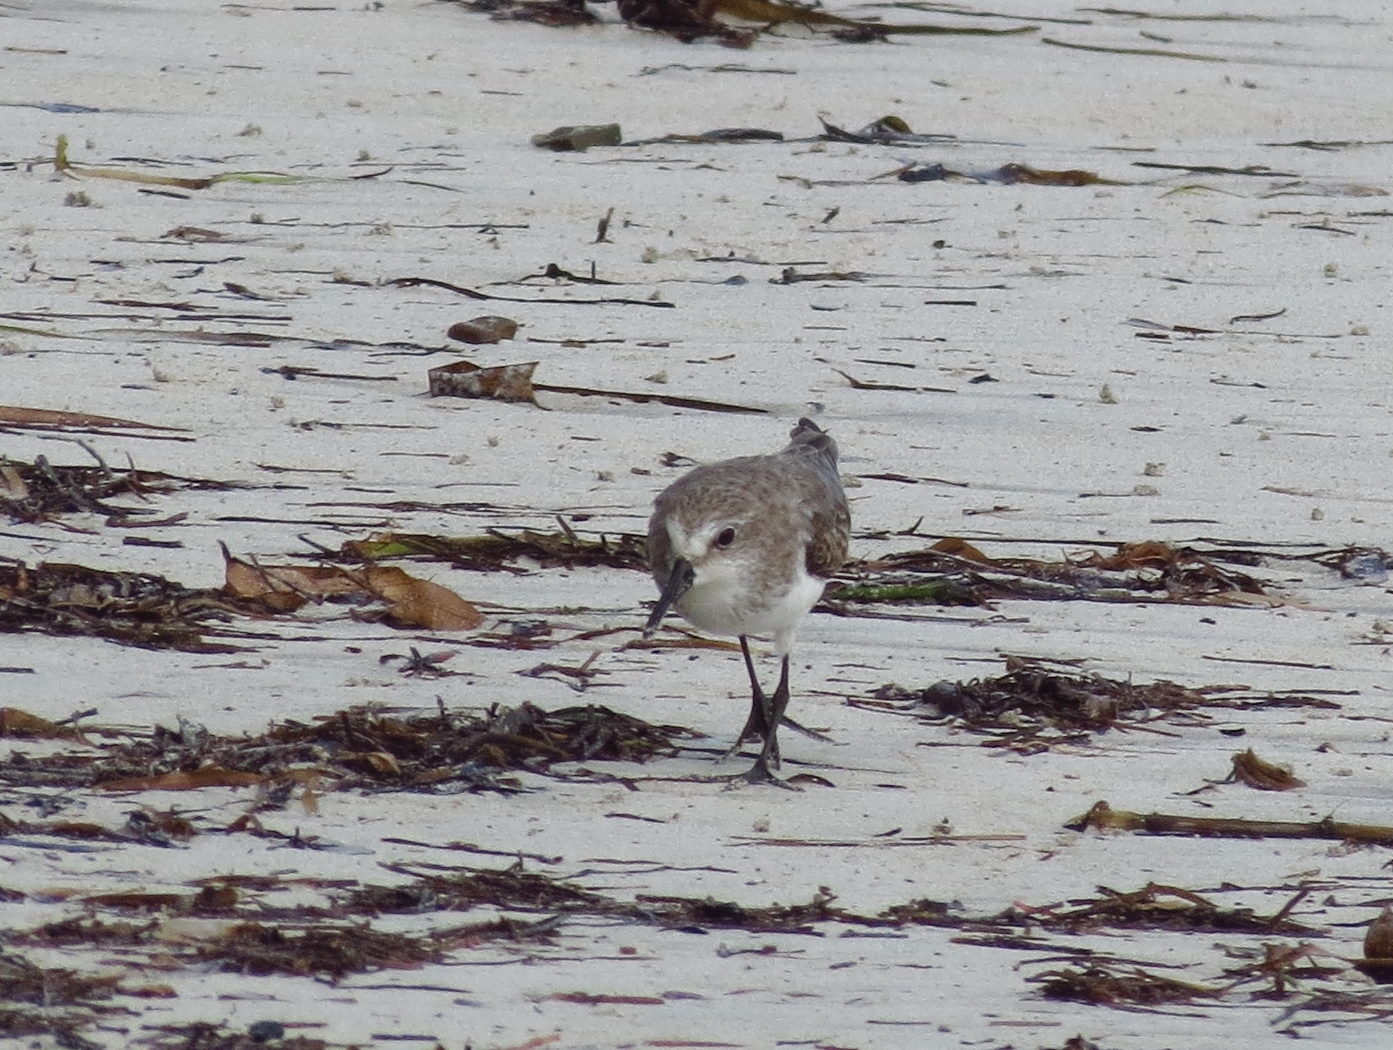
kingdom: Animalia
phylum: Chordata
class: Aves
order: Charadriiformes
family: Scolopacidae
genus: Calidris
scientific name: Calidris pusilla
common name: Semipalmated sandpiper
